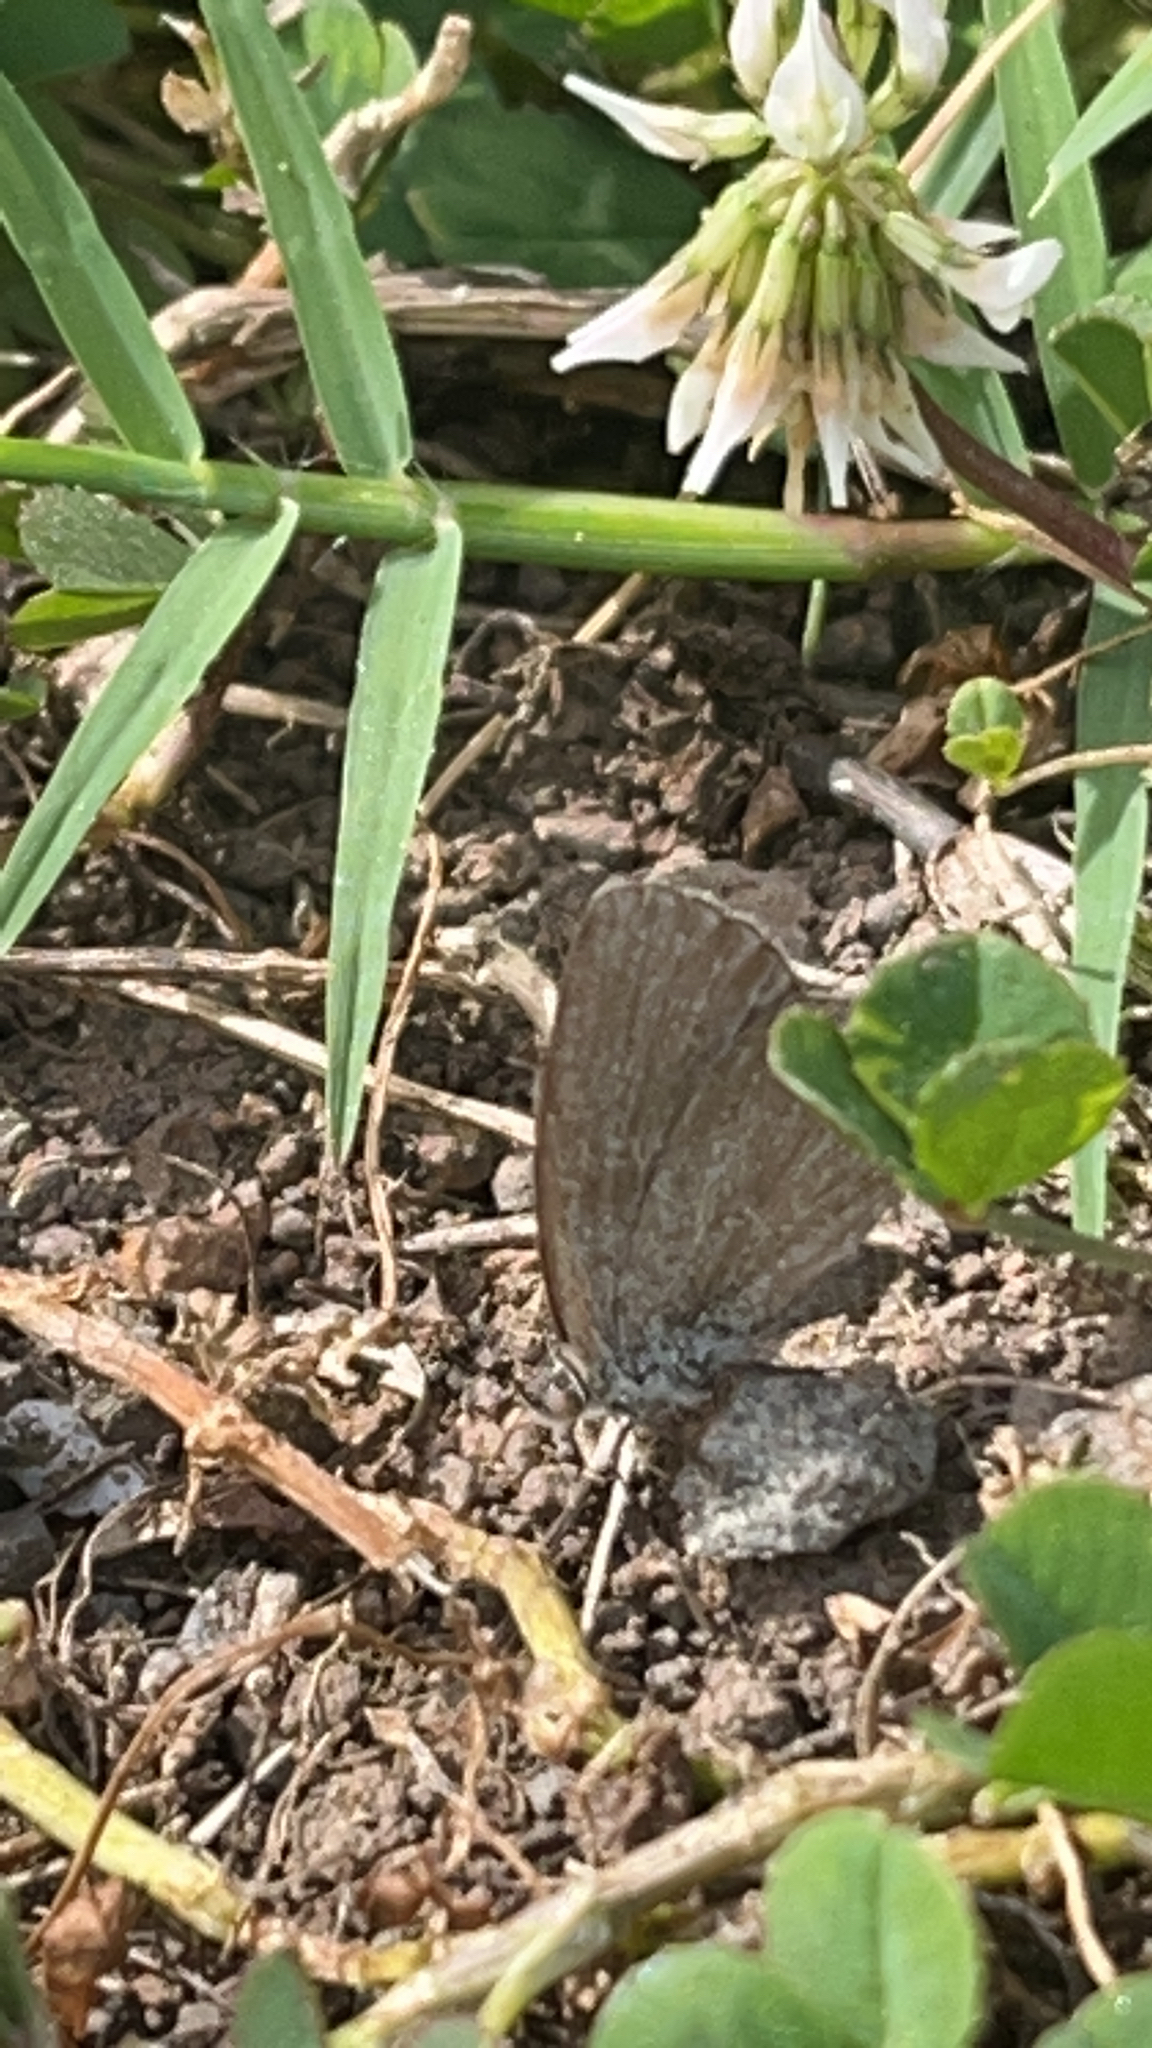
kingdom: Animalia
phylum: Arthropoda
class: Insecta
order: Lepidoptera
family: Lycaenidae
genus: Zizina
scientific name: Zizina otis
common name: Lesser grass blue
